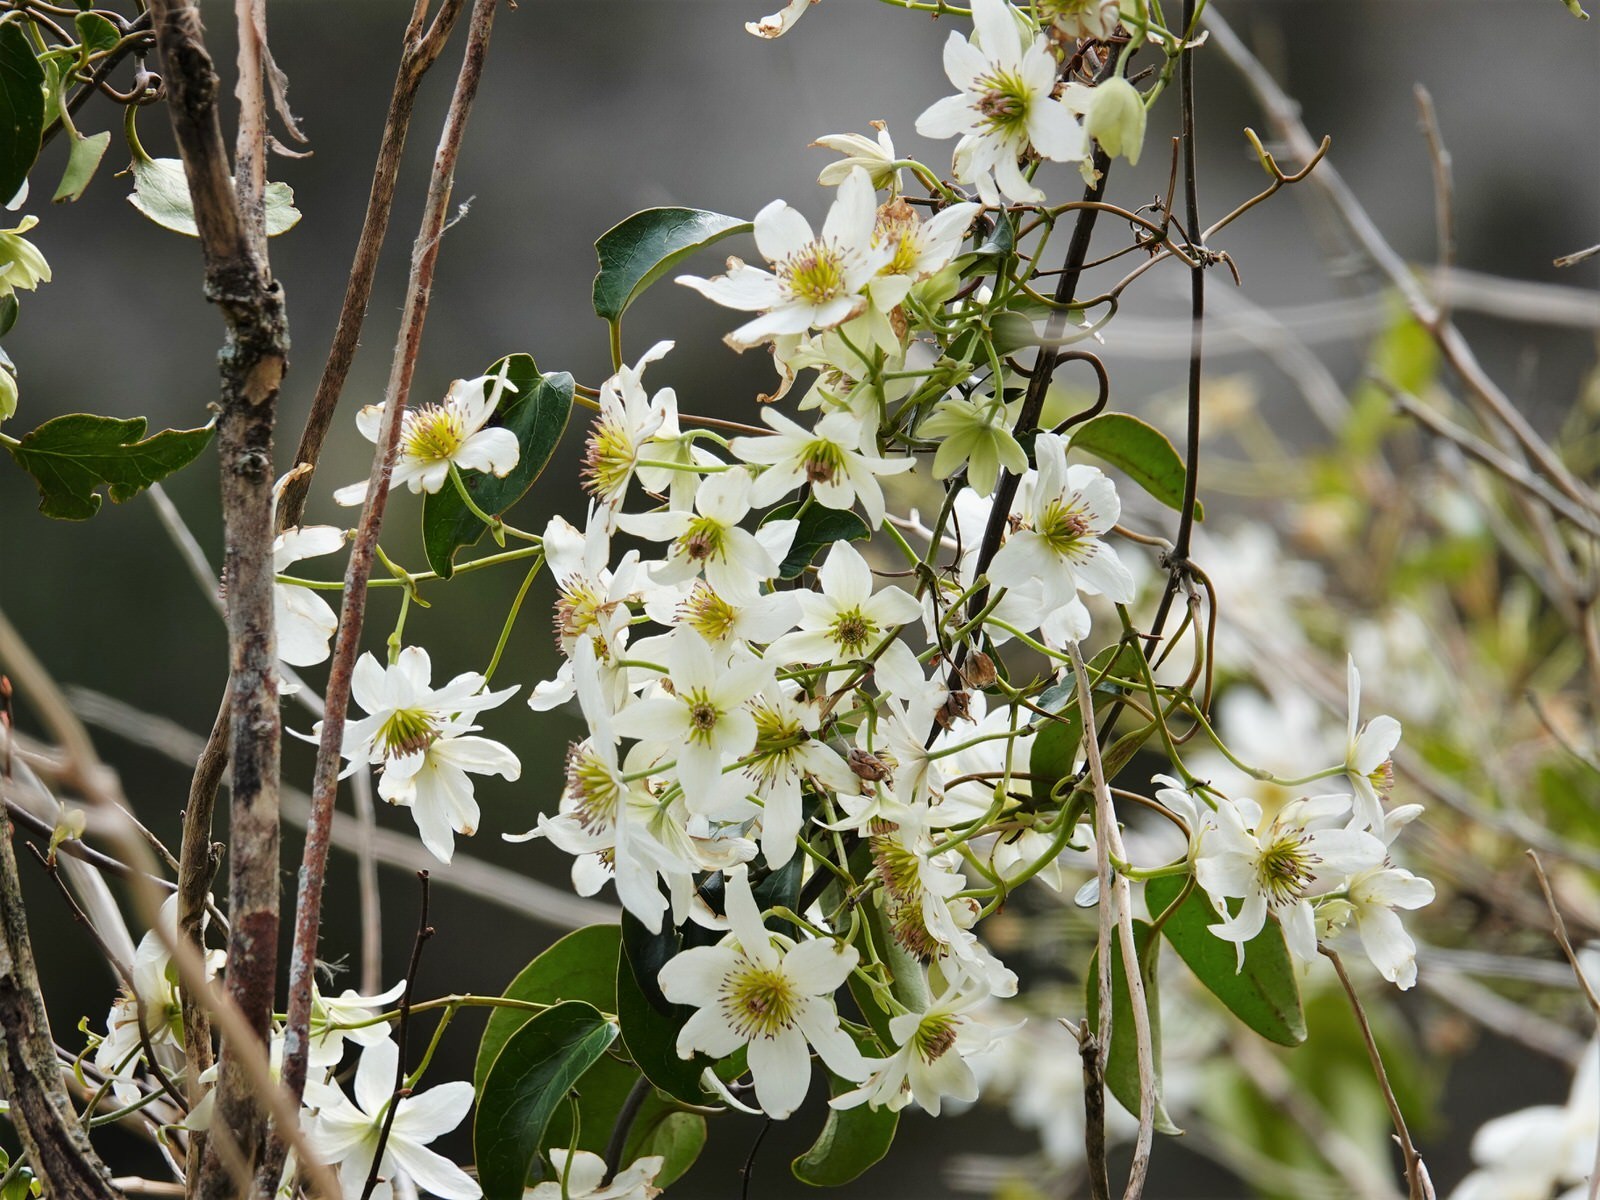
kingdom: Plantae
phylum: Tracheophyta
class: Magnoliopsida
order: Ranunculales
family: Ranunculaceae
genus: Clematis
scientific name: Clematis paniculata
